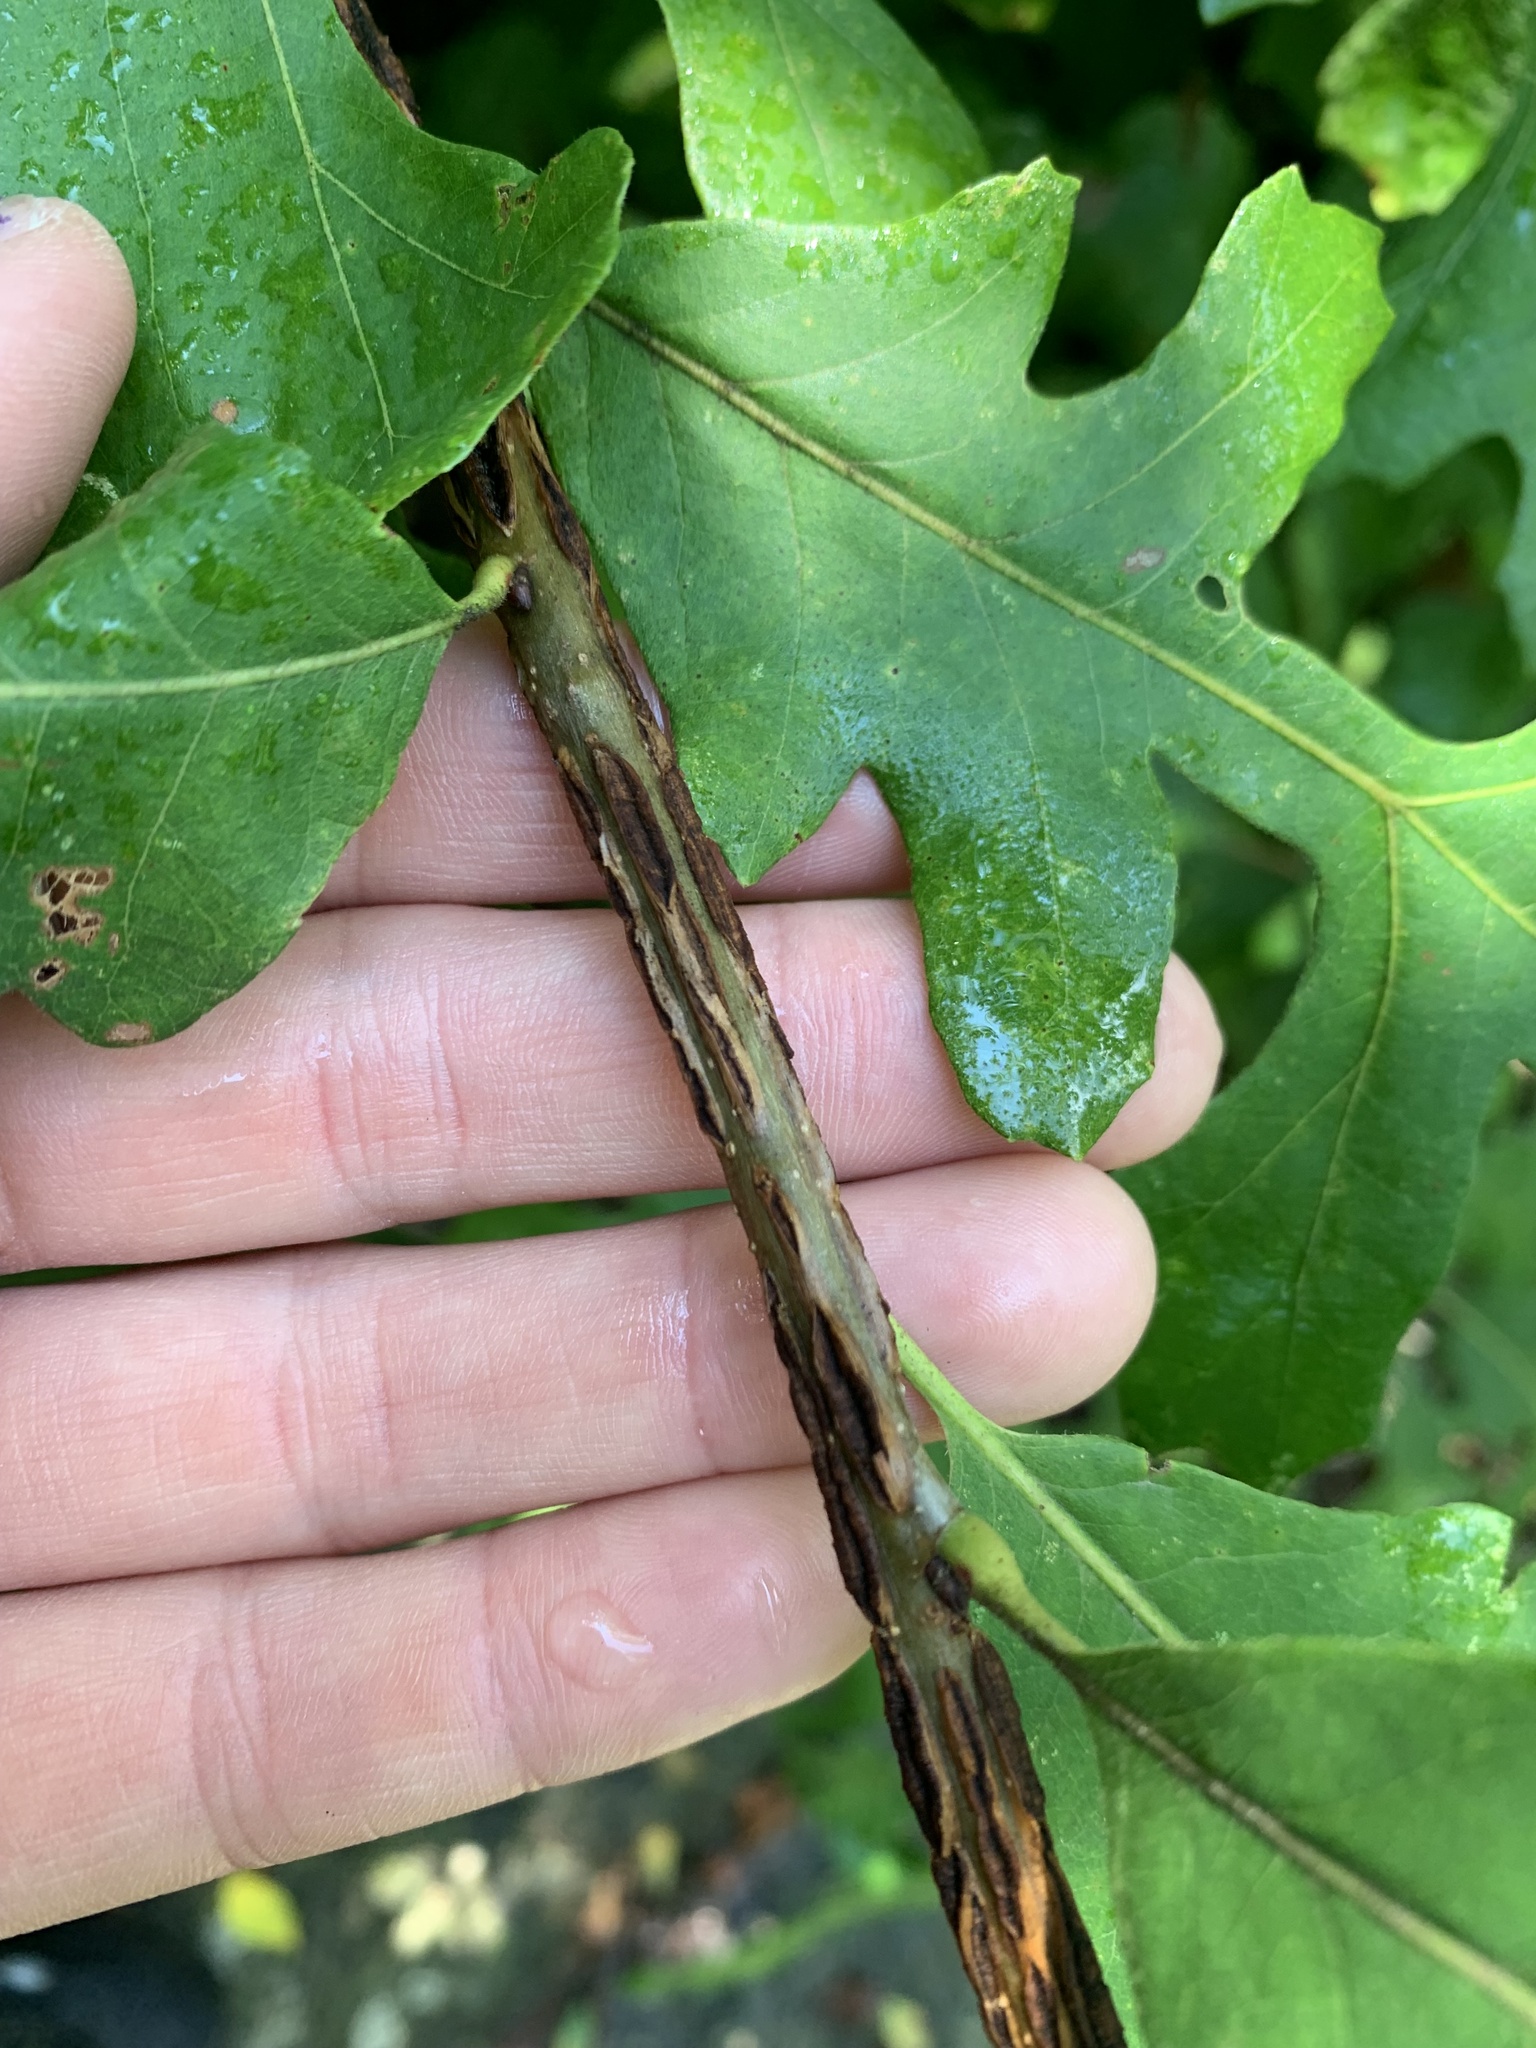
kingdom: Plantae
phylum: Tracheophyta
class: Magnoliopsida
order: Fagales
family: Fagaceae
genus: Quercus
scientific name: Quercus macrocarpa
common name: Bur oak
